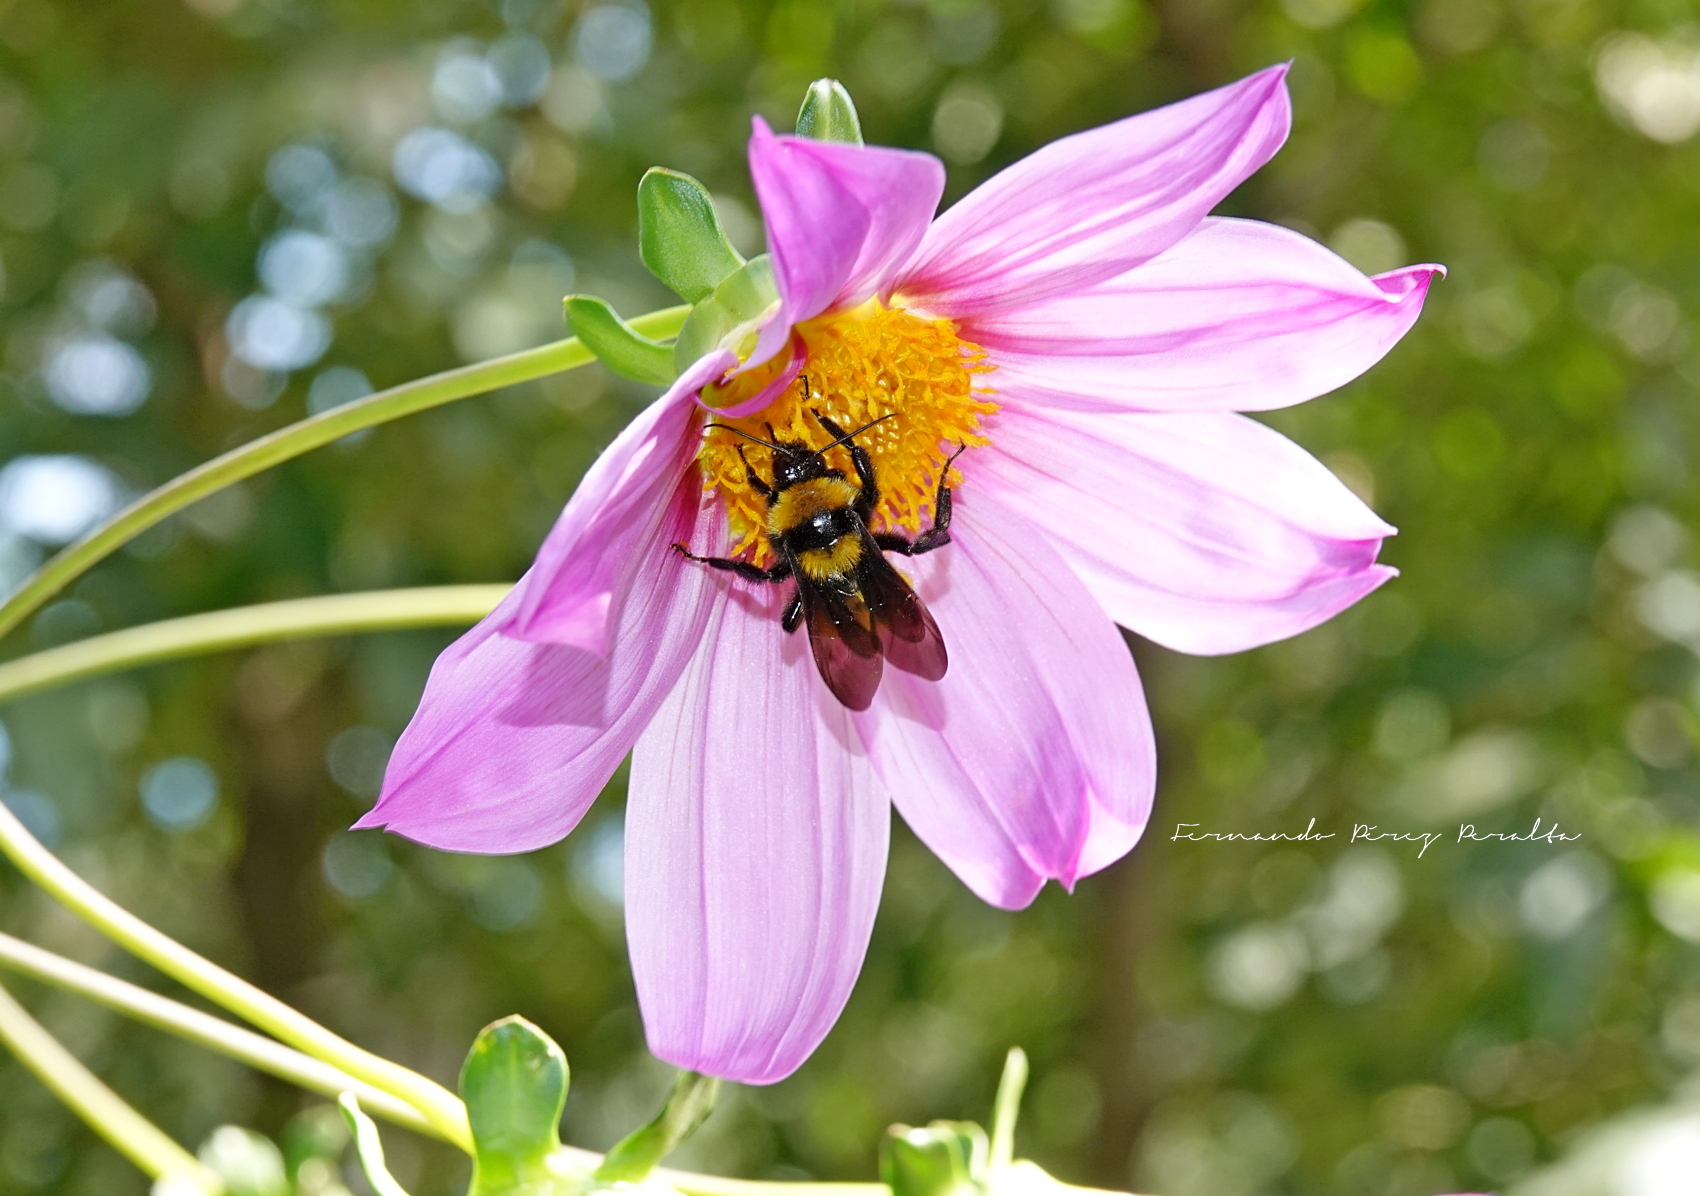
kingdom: Animalia
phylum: Arthropoda
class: Insecta
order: Hymenoptera
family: Apidae
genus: Bombus
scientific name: Bombus sonorus
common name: Sonoran bumble bee
